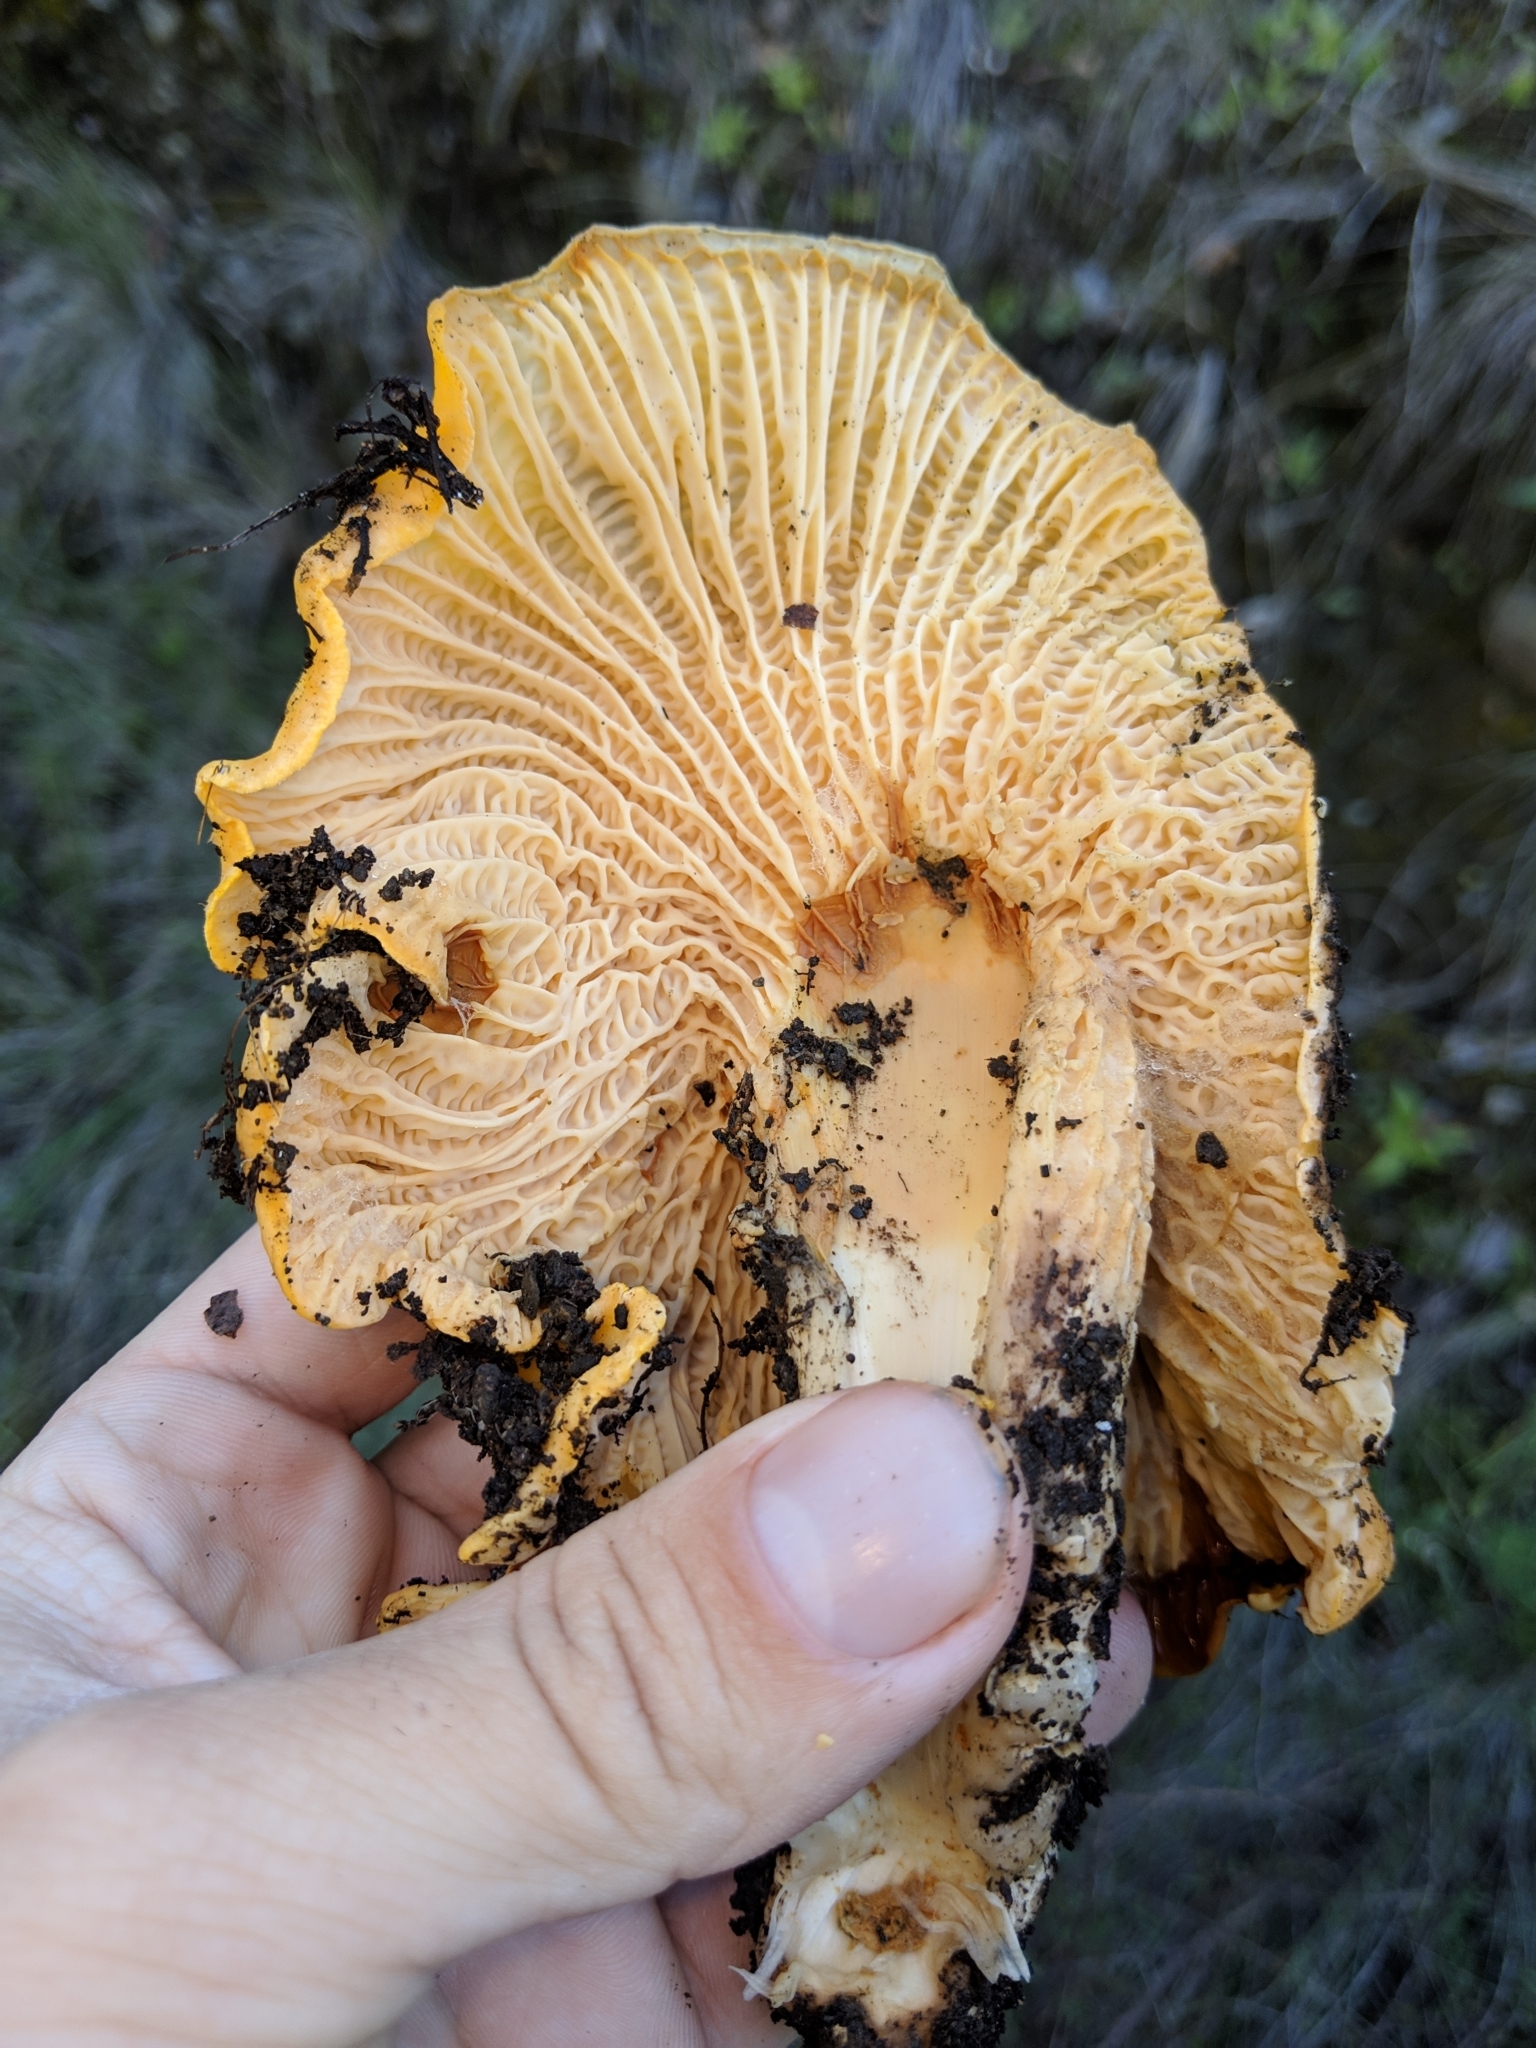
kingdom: Fungi
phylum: Basidiomycota
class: Agaricomycetes
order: Cantharellales
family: Hydnaceae
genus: Cantharellus
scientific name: Cantharellus californicus
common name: California golden chanterelle
